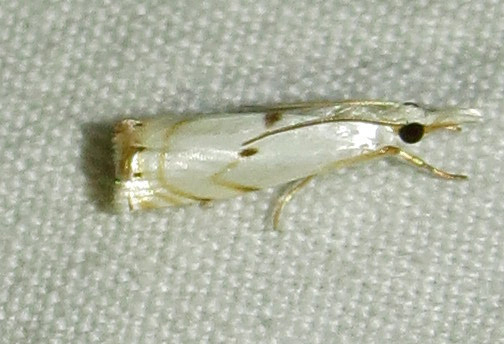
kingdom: Animalia
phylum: Arthropoda
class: Insecta
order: Lepidoptera
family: Crambidae
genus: Microcrambus
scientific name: Microcrambus biguttellus
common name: Gold-stripe grass-veneer moth
